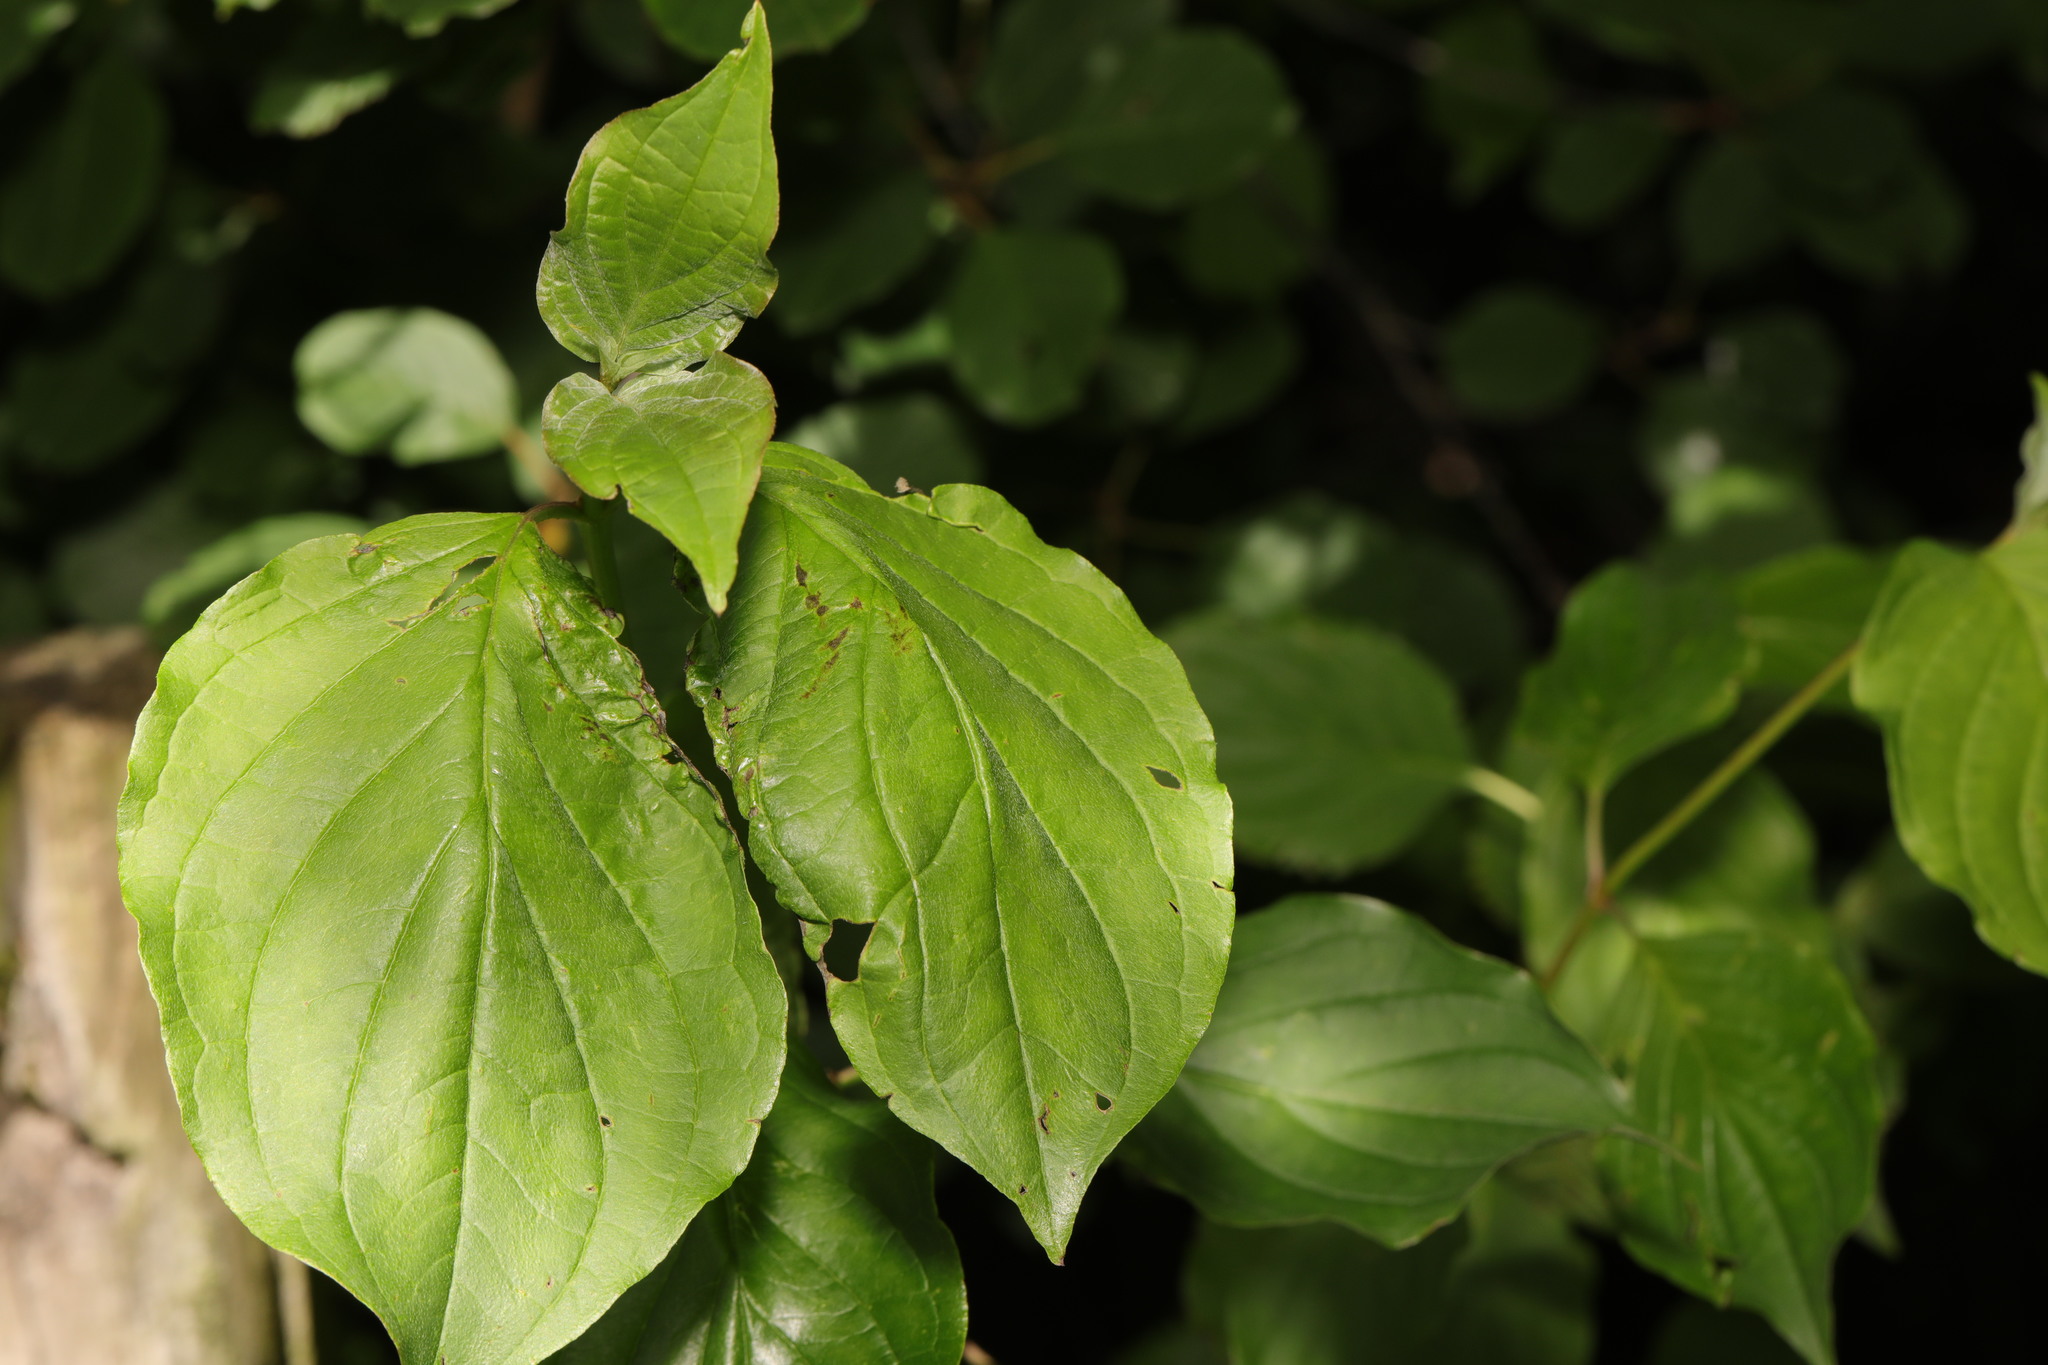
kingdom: Plantae
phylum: Tracheophyta
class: Magnoliopsida
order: Cornales
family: Cornaceae
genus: Cornus
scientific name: Cornus sanguinea
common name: Dogwood
